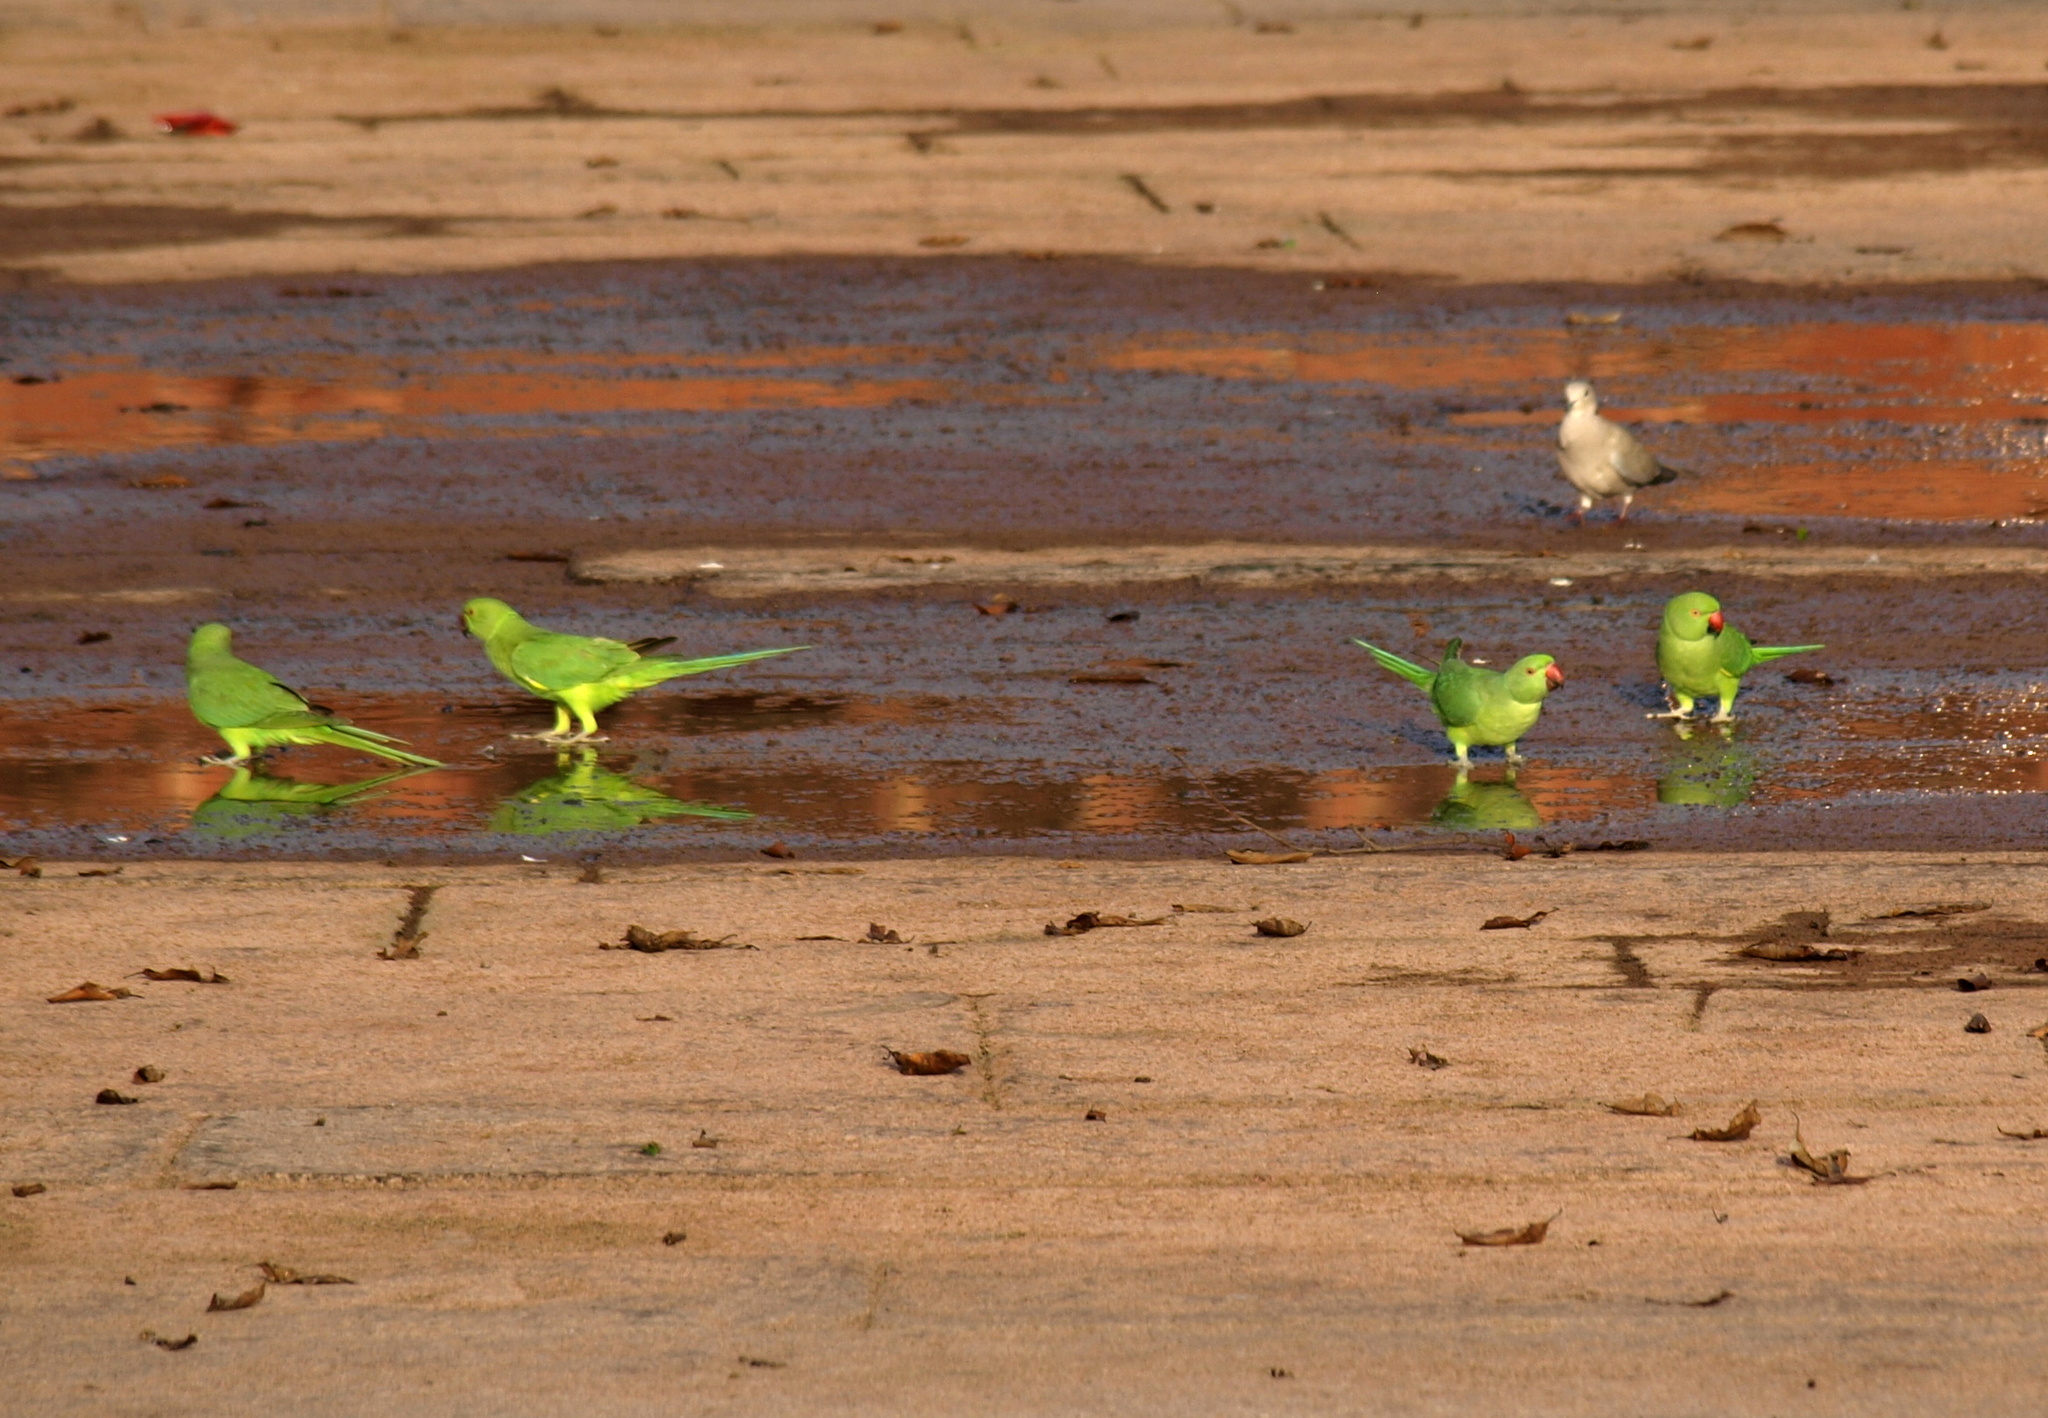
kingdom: Animalia
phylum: Chordata
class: Aves
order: Psittaciformes
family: Psittacidae
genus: Psittacula
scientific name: Psittacula krameri
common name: Rose-ringed parakeet
